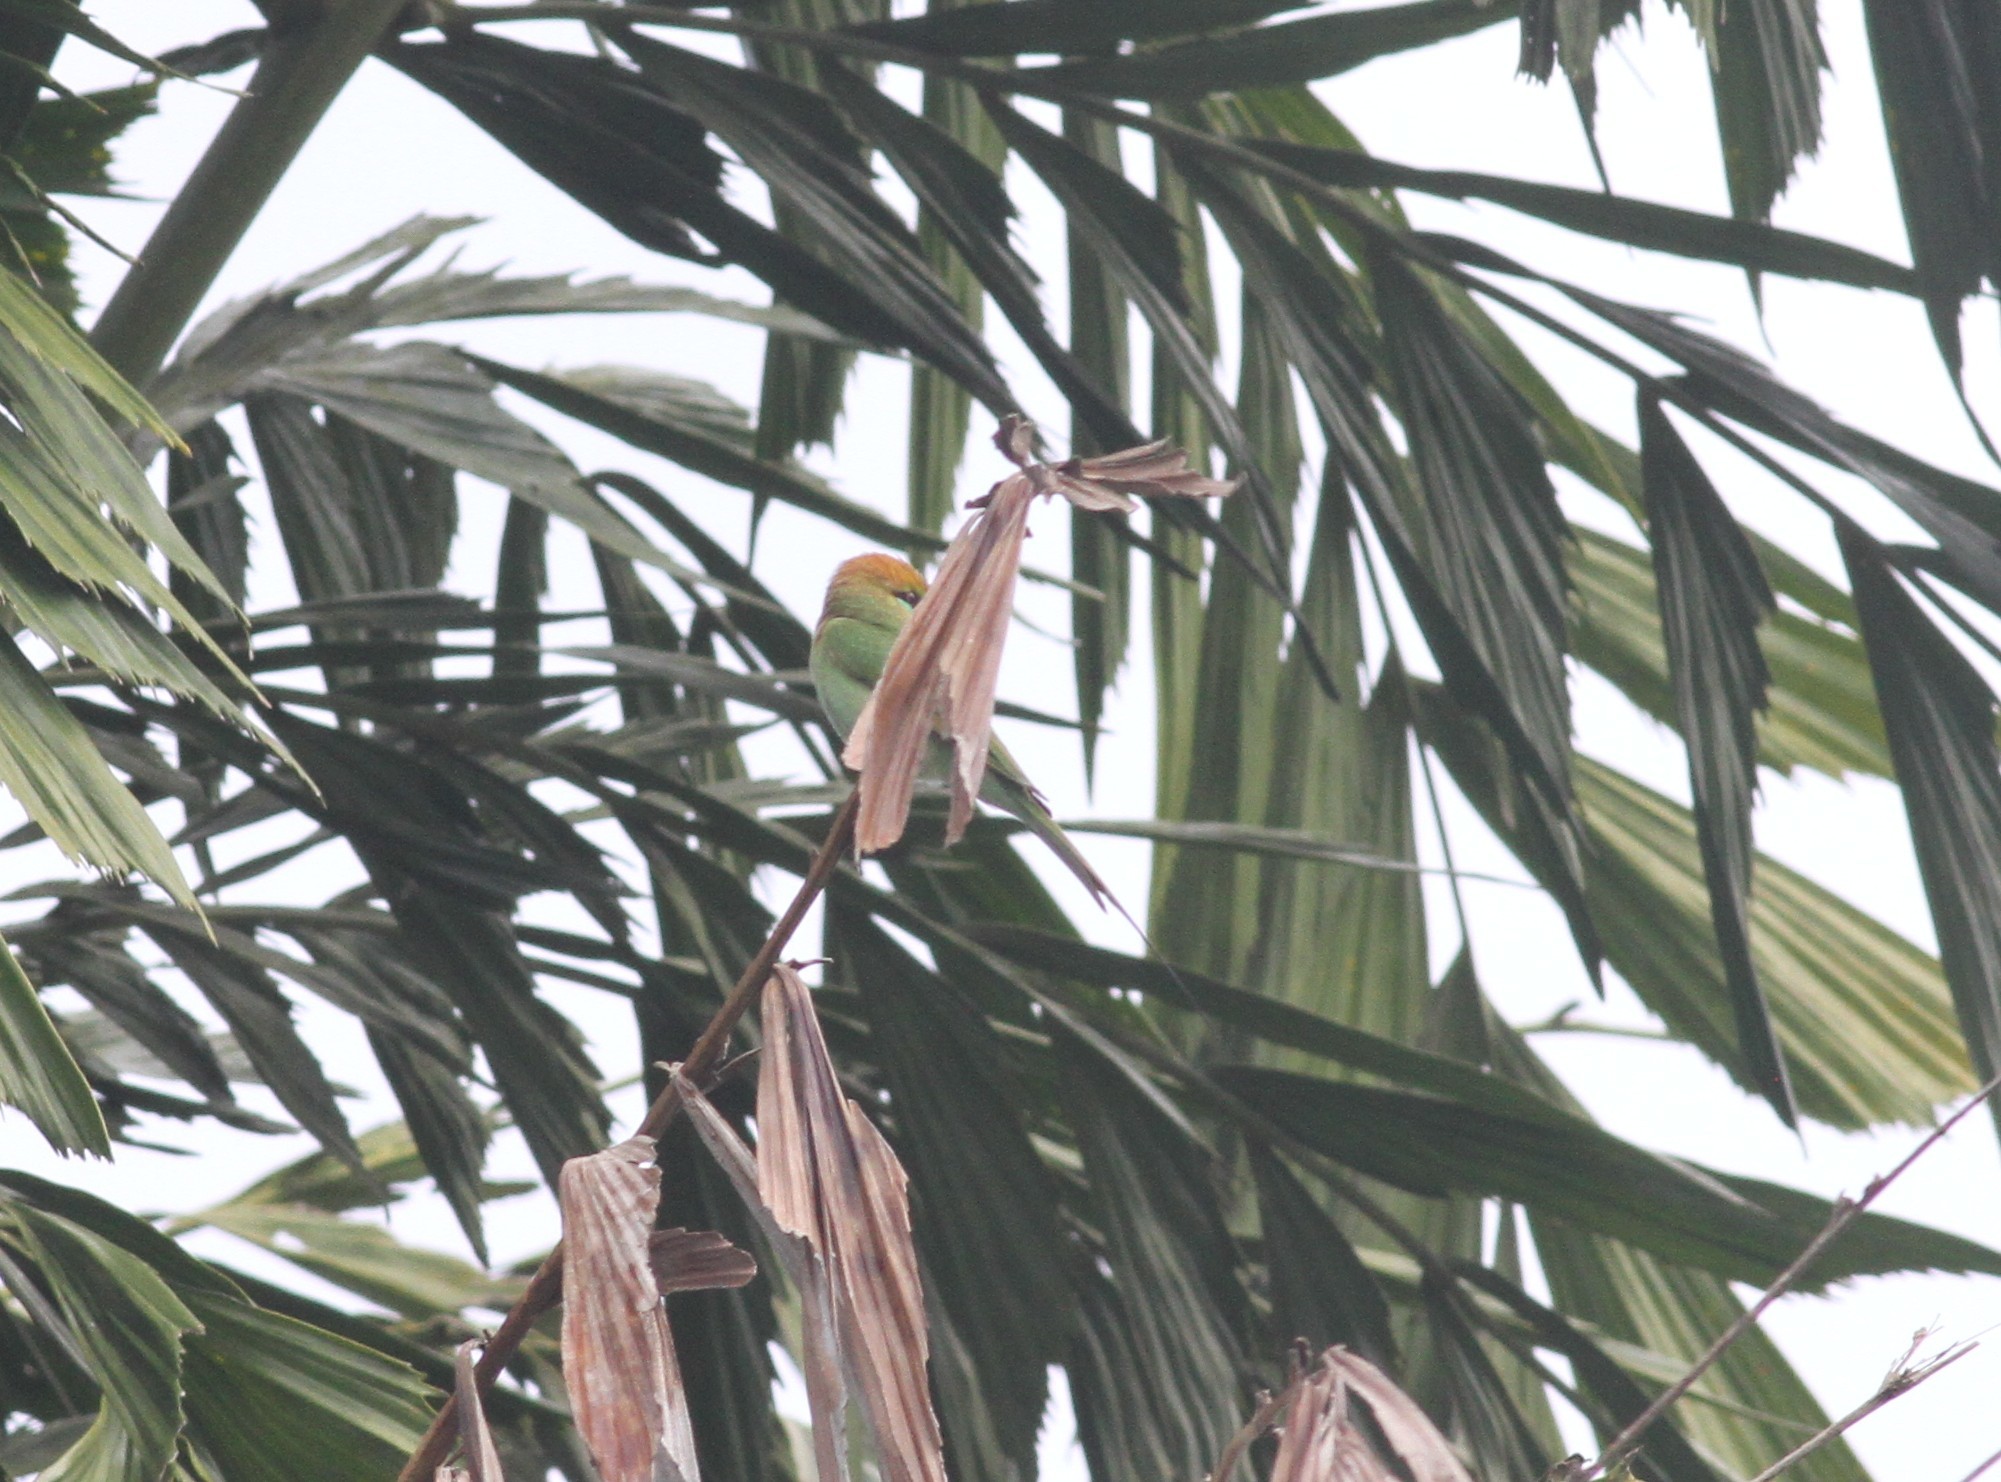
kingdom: Animalia
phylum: Chordata
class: Aves
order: Coraciiformes
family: Meropidae
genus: Merops
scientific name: Merops orientalis
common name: Green bee-eater
